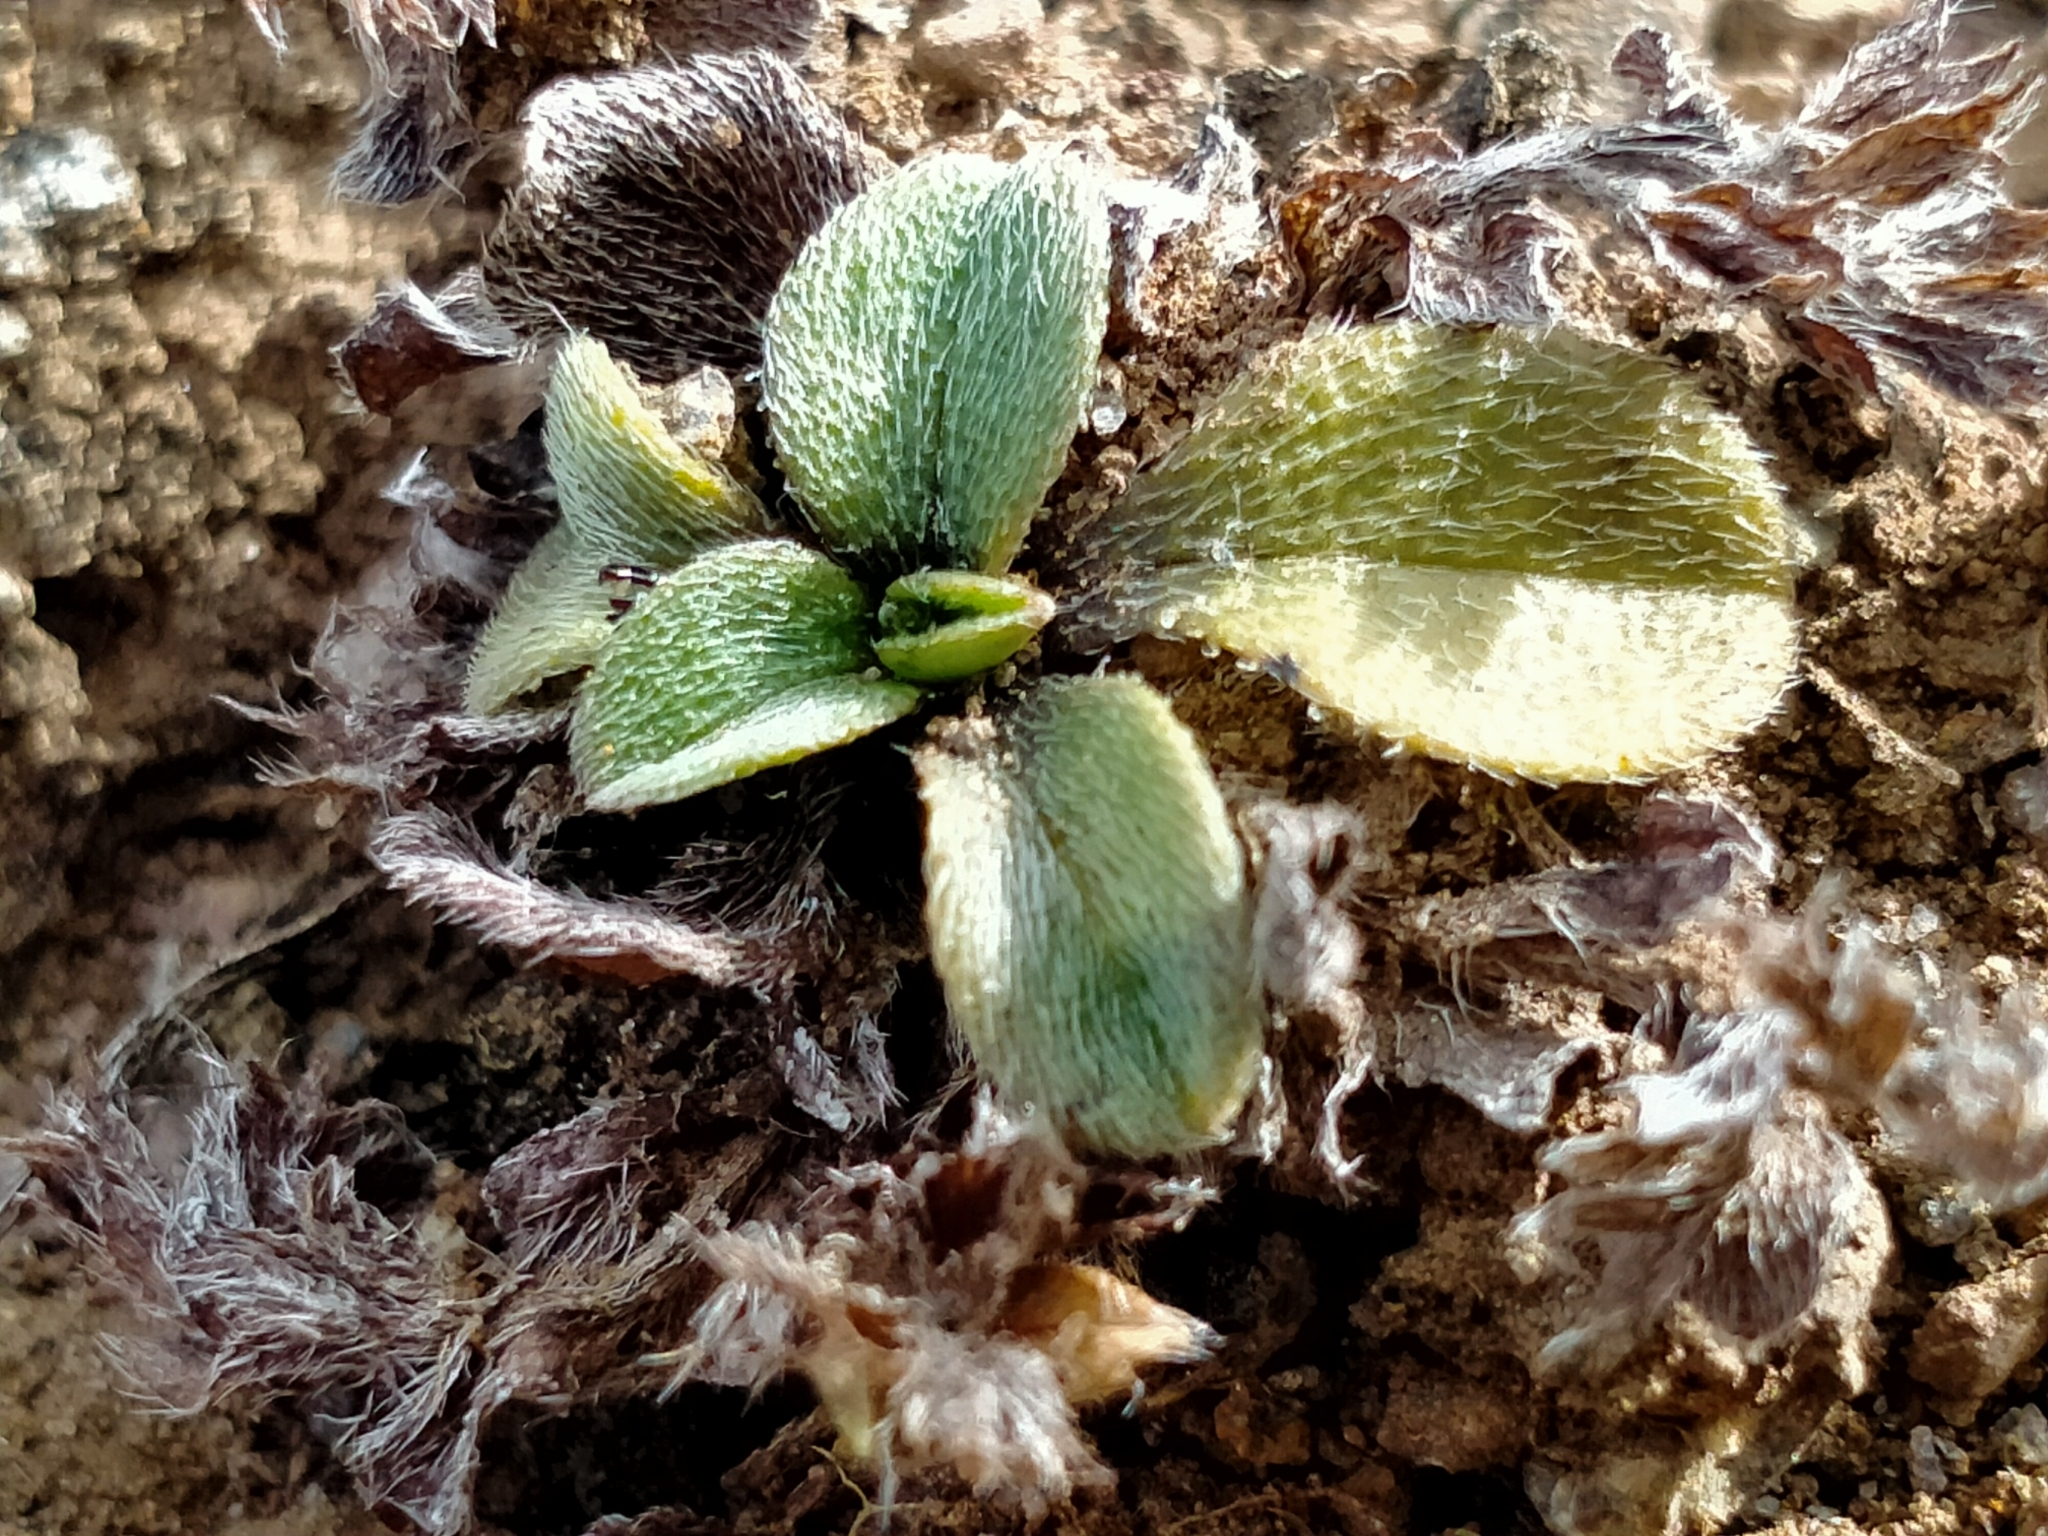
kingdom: Plantae
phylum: Tracheophyta
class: Magnoliopsida
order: Boraginales
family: Boraginaceae
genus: Myosotis
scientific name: Myosotis antarctica
